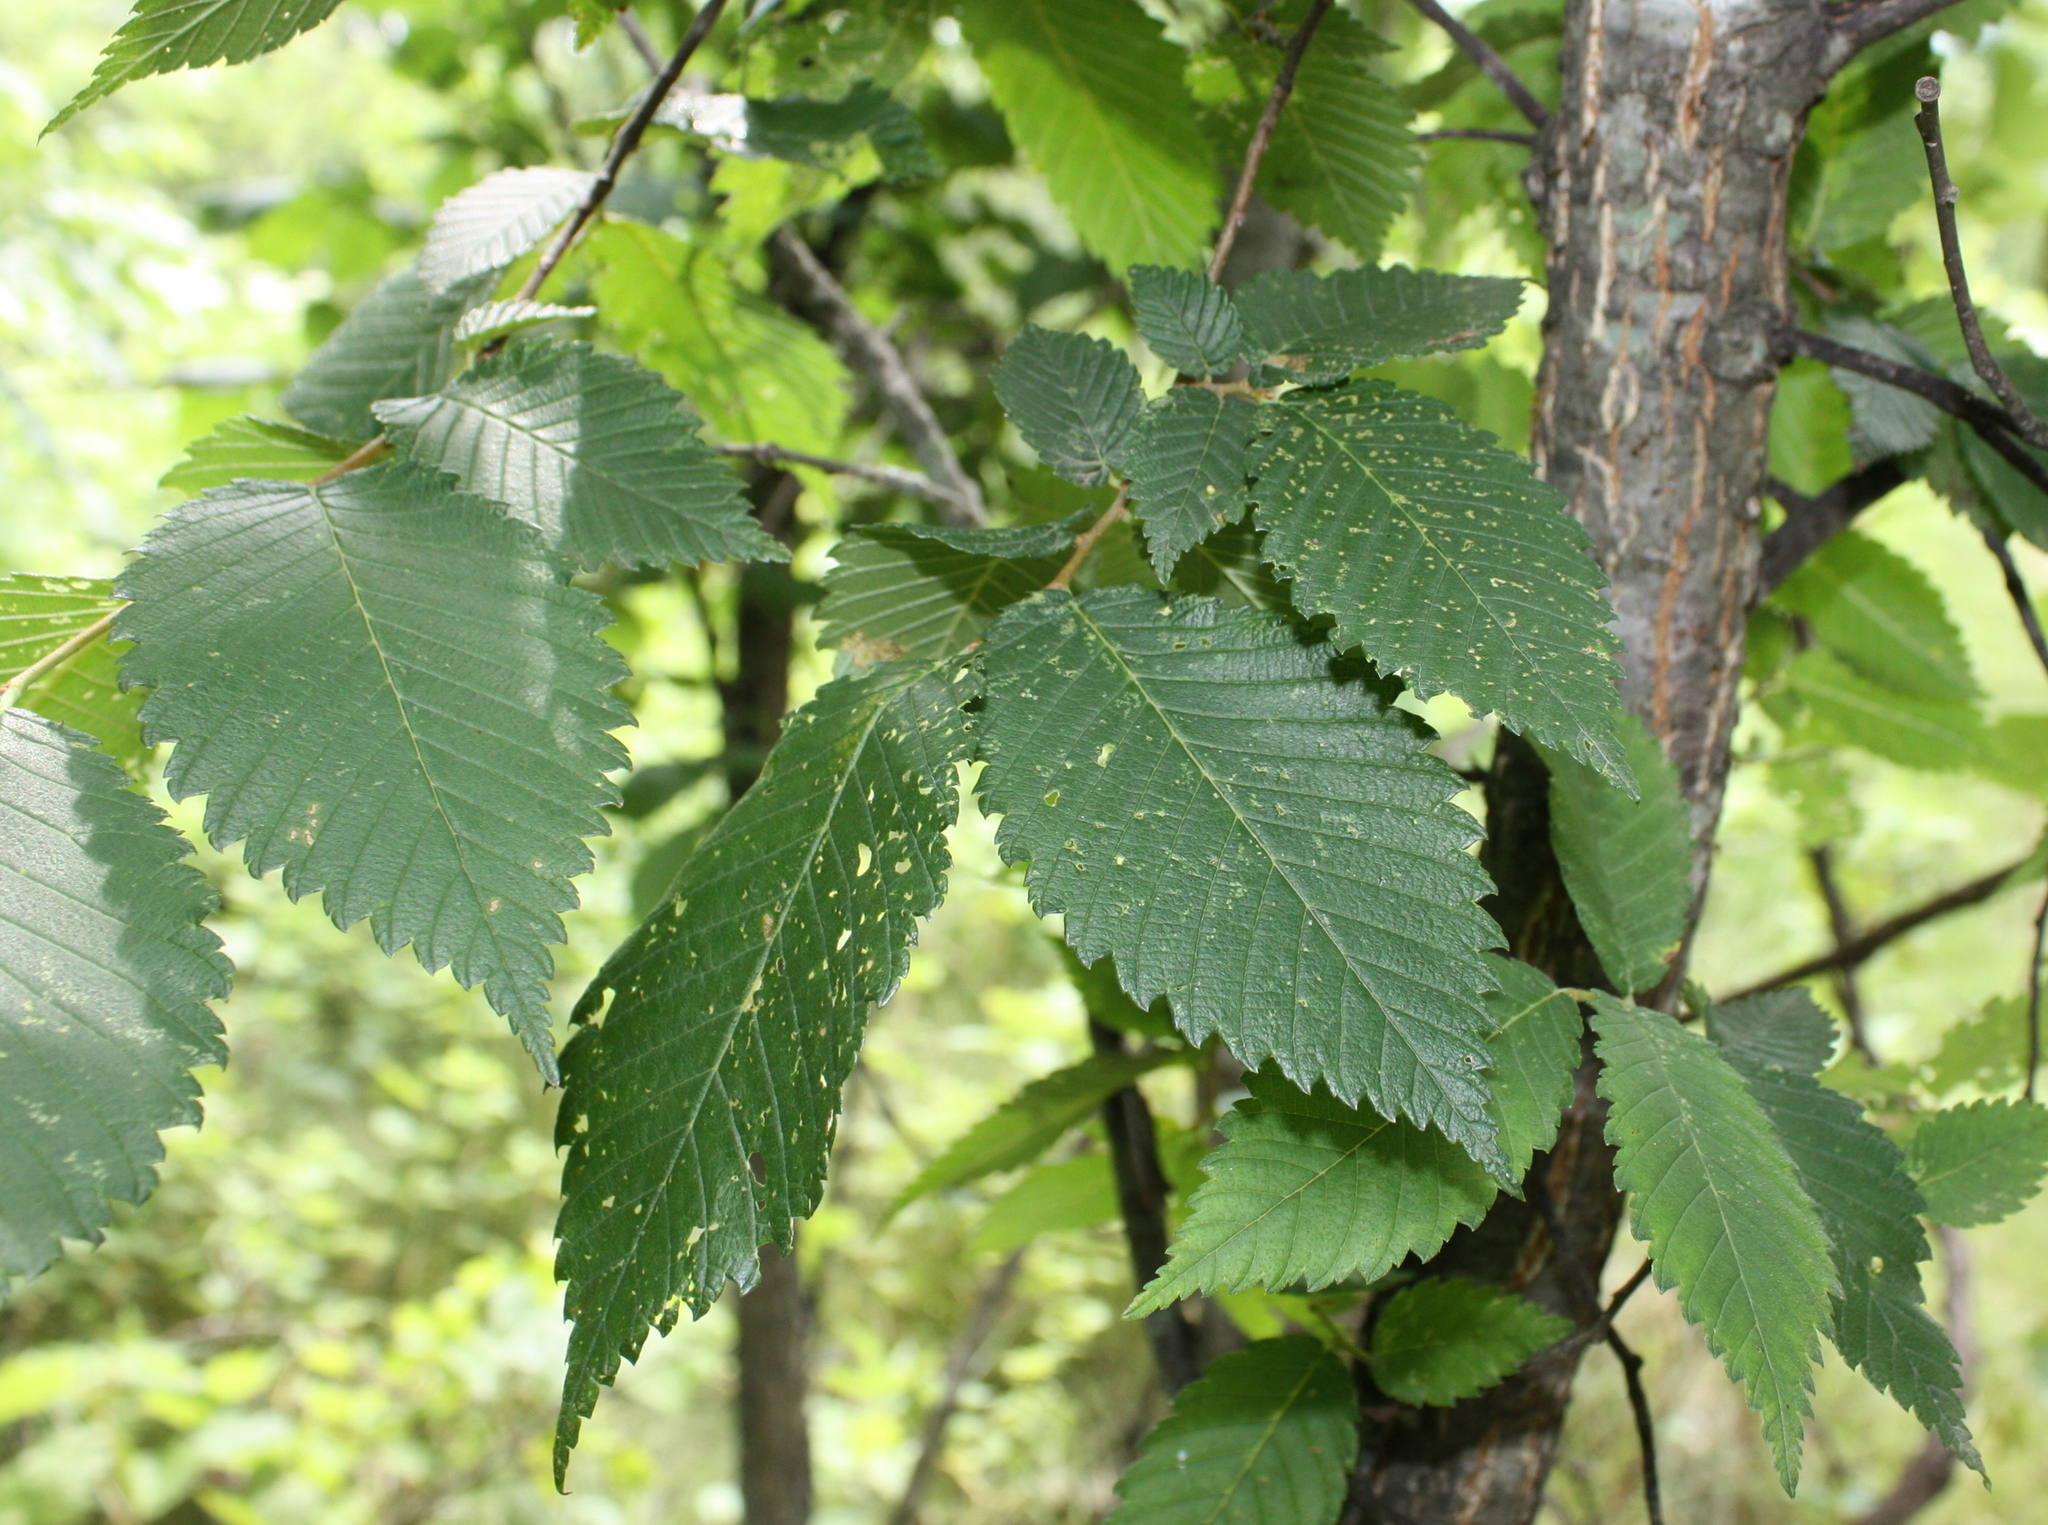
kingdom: Plantae
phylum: Tracheophyta
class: Magnoliopsida
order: Rosales
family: Ulmaceae
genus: Ulmus
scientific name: Ulmus americana
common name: American elm
